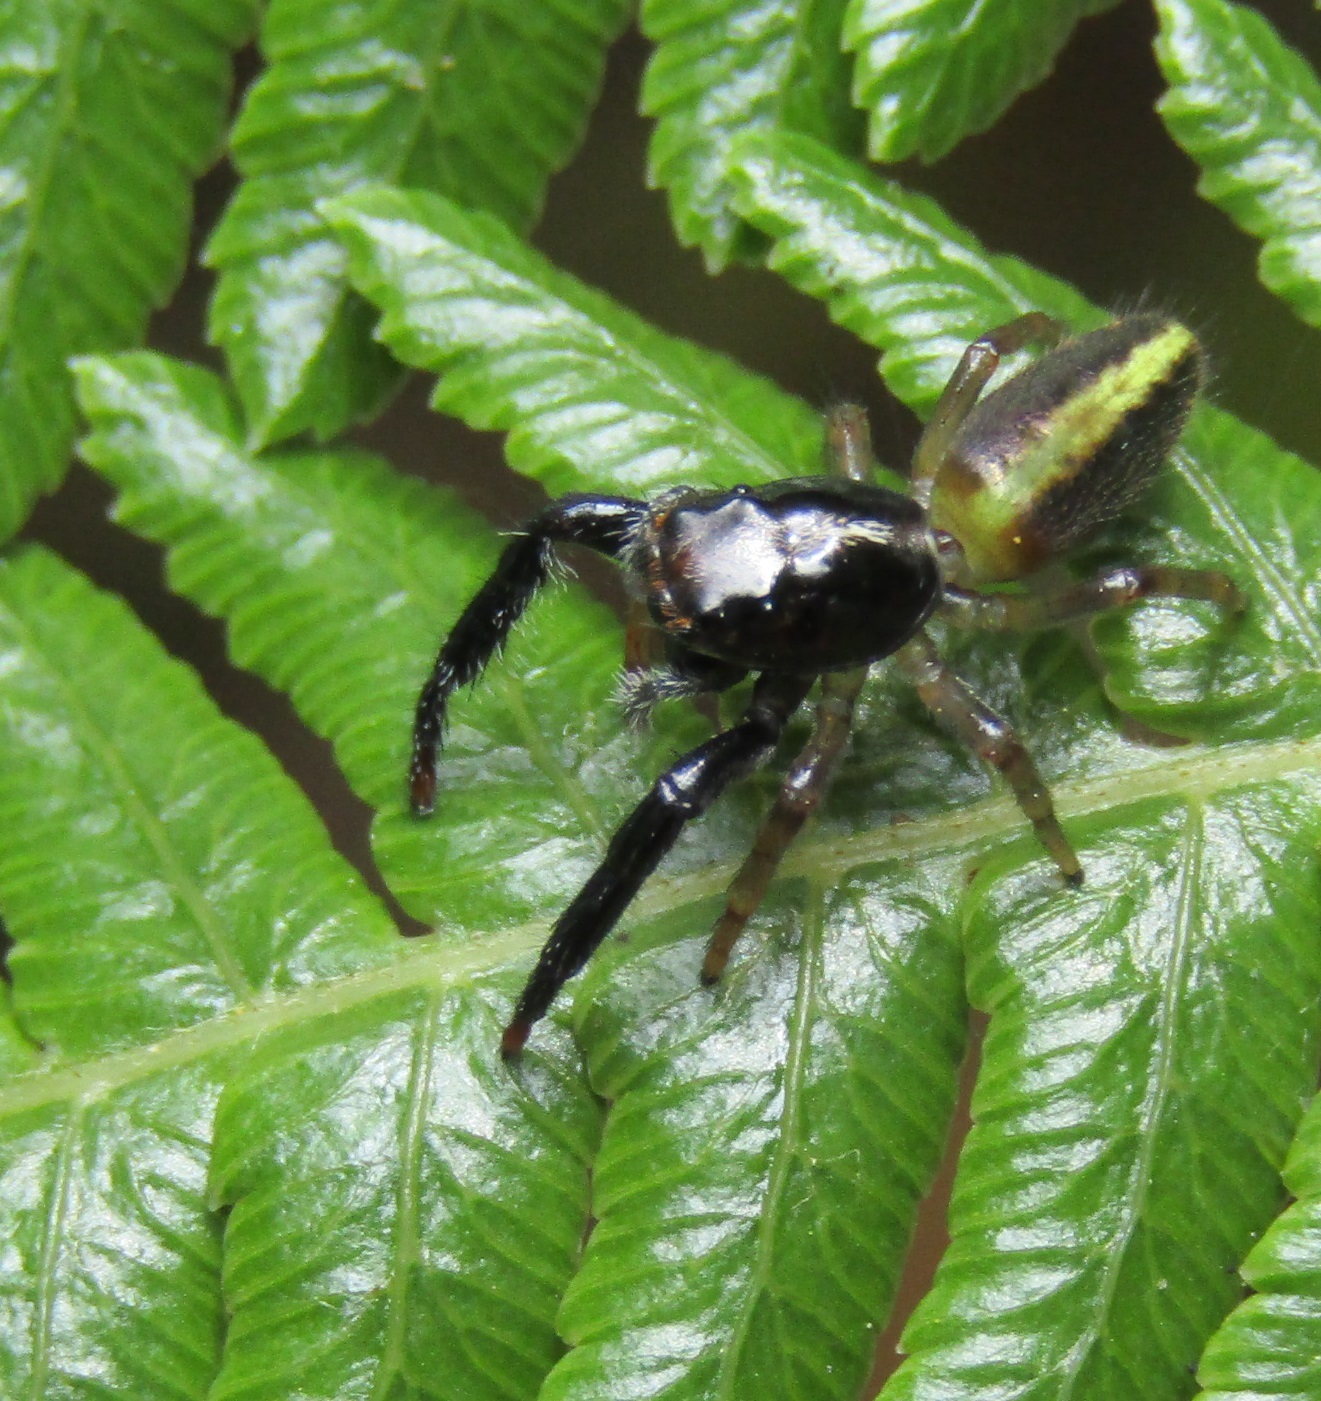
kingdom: Animalia
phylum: Arthropoda
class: Arachnida
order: Araneae
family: Salticidae
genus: Trite
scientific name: Trite planiceps
